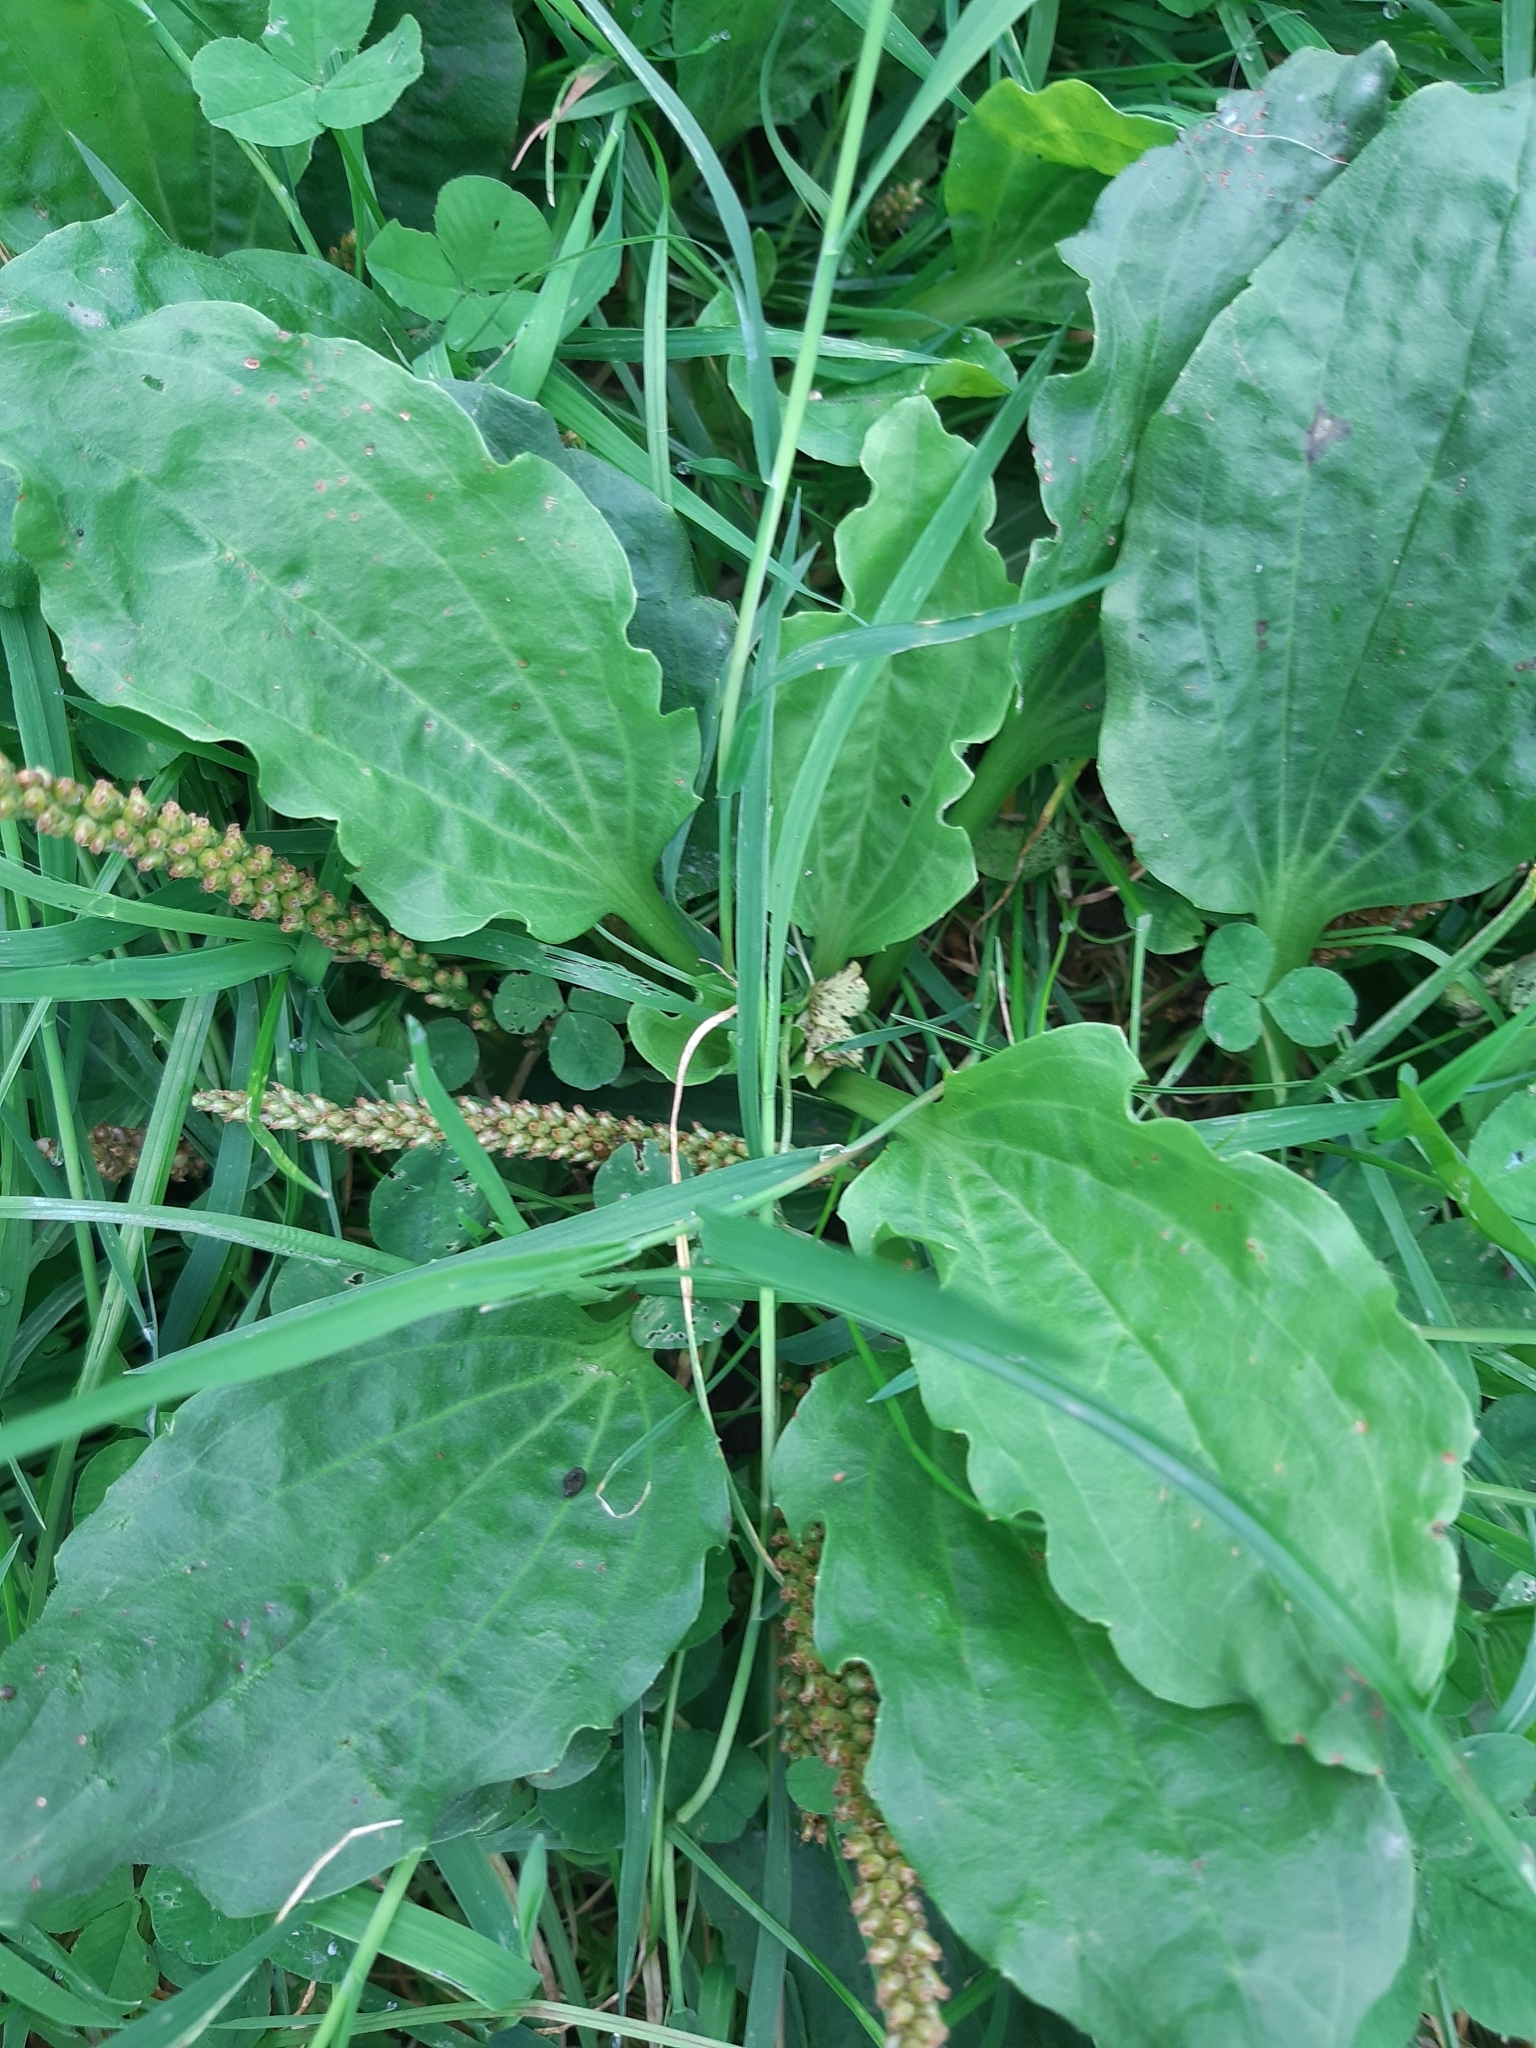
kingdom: Plantae
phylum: Tracheophyta
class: Magnoliopsida
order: Lamiales
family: Plantaginaceae
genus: Plantago
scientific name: Plantago major
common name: Common plantain
